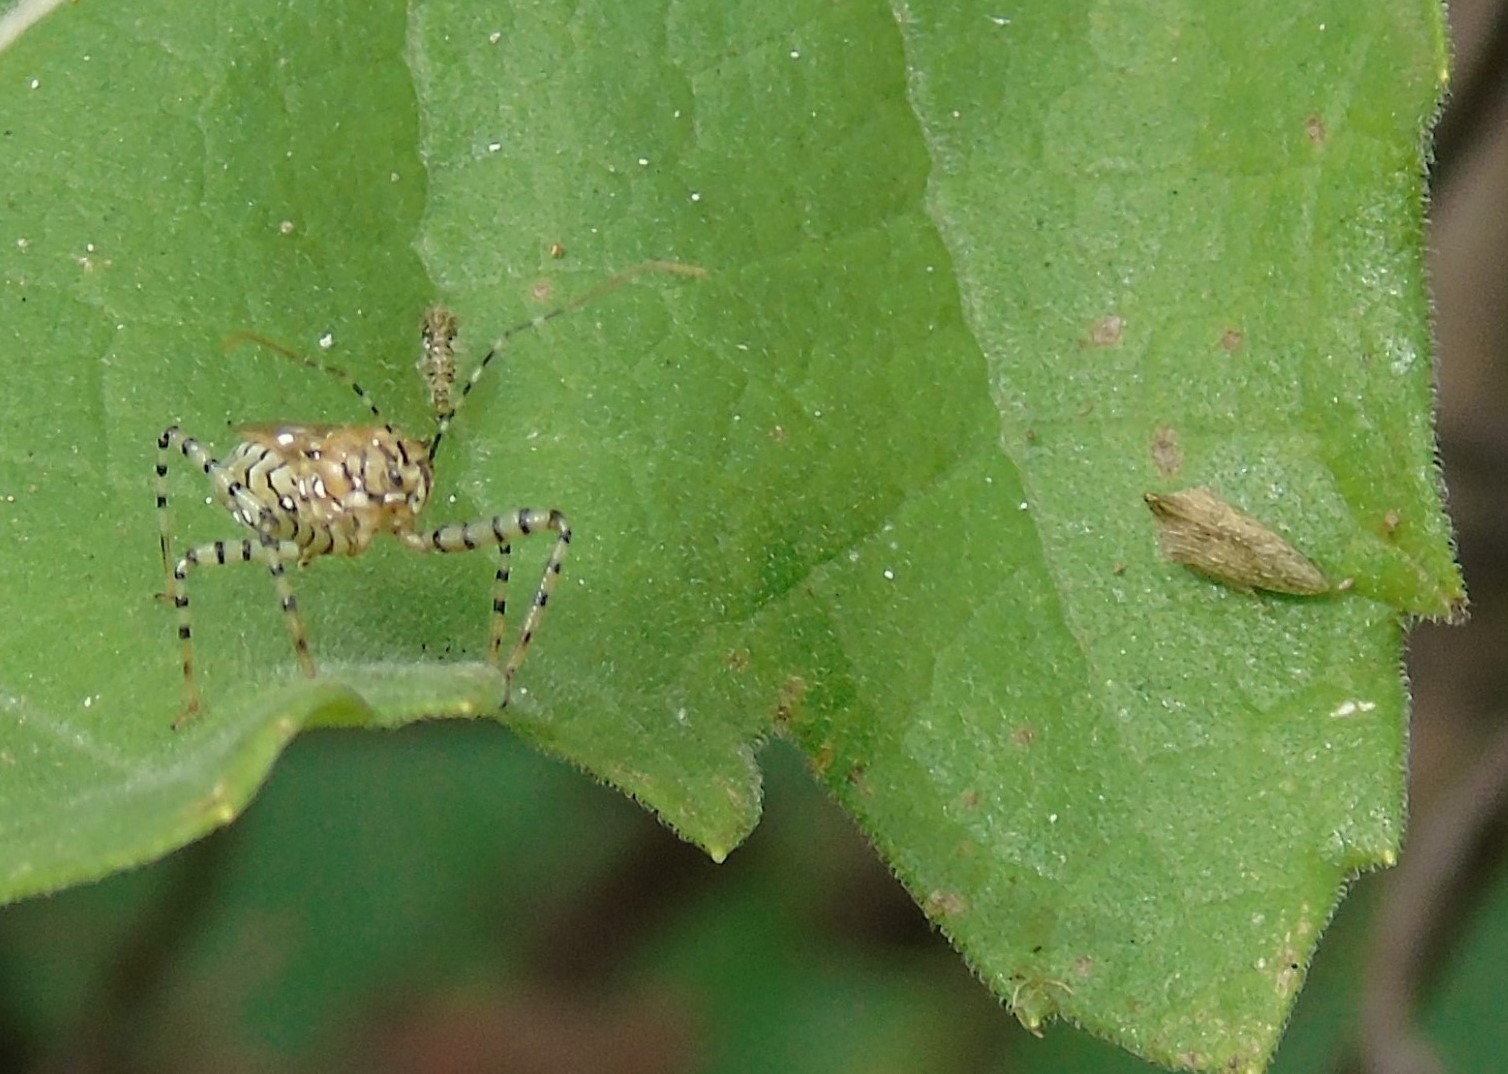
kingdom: Animalia
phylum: Arthropoda
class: Insecta
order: Hemiptera
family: Reduviidae
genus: Pselliopus
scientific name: Pselliopus
